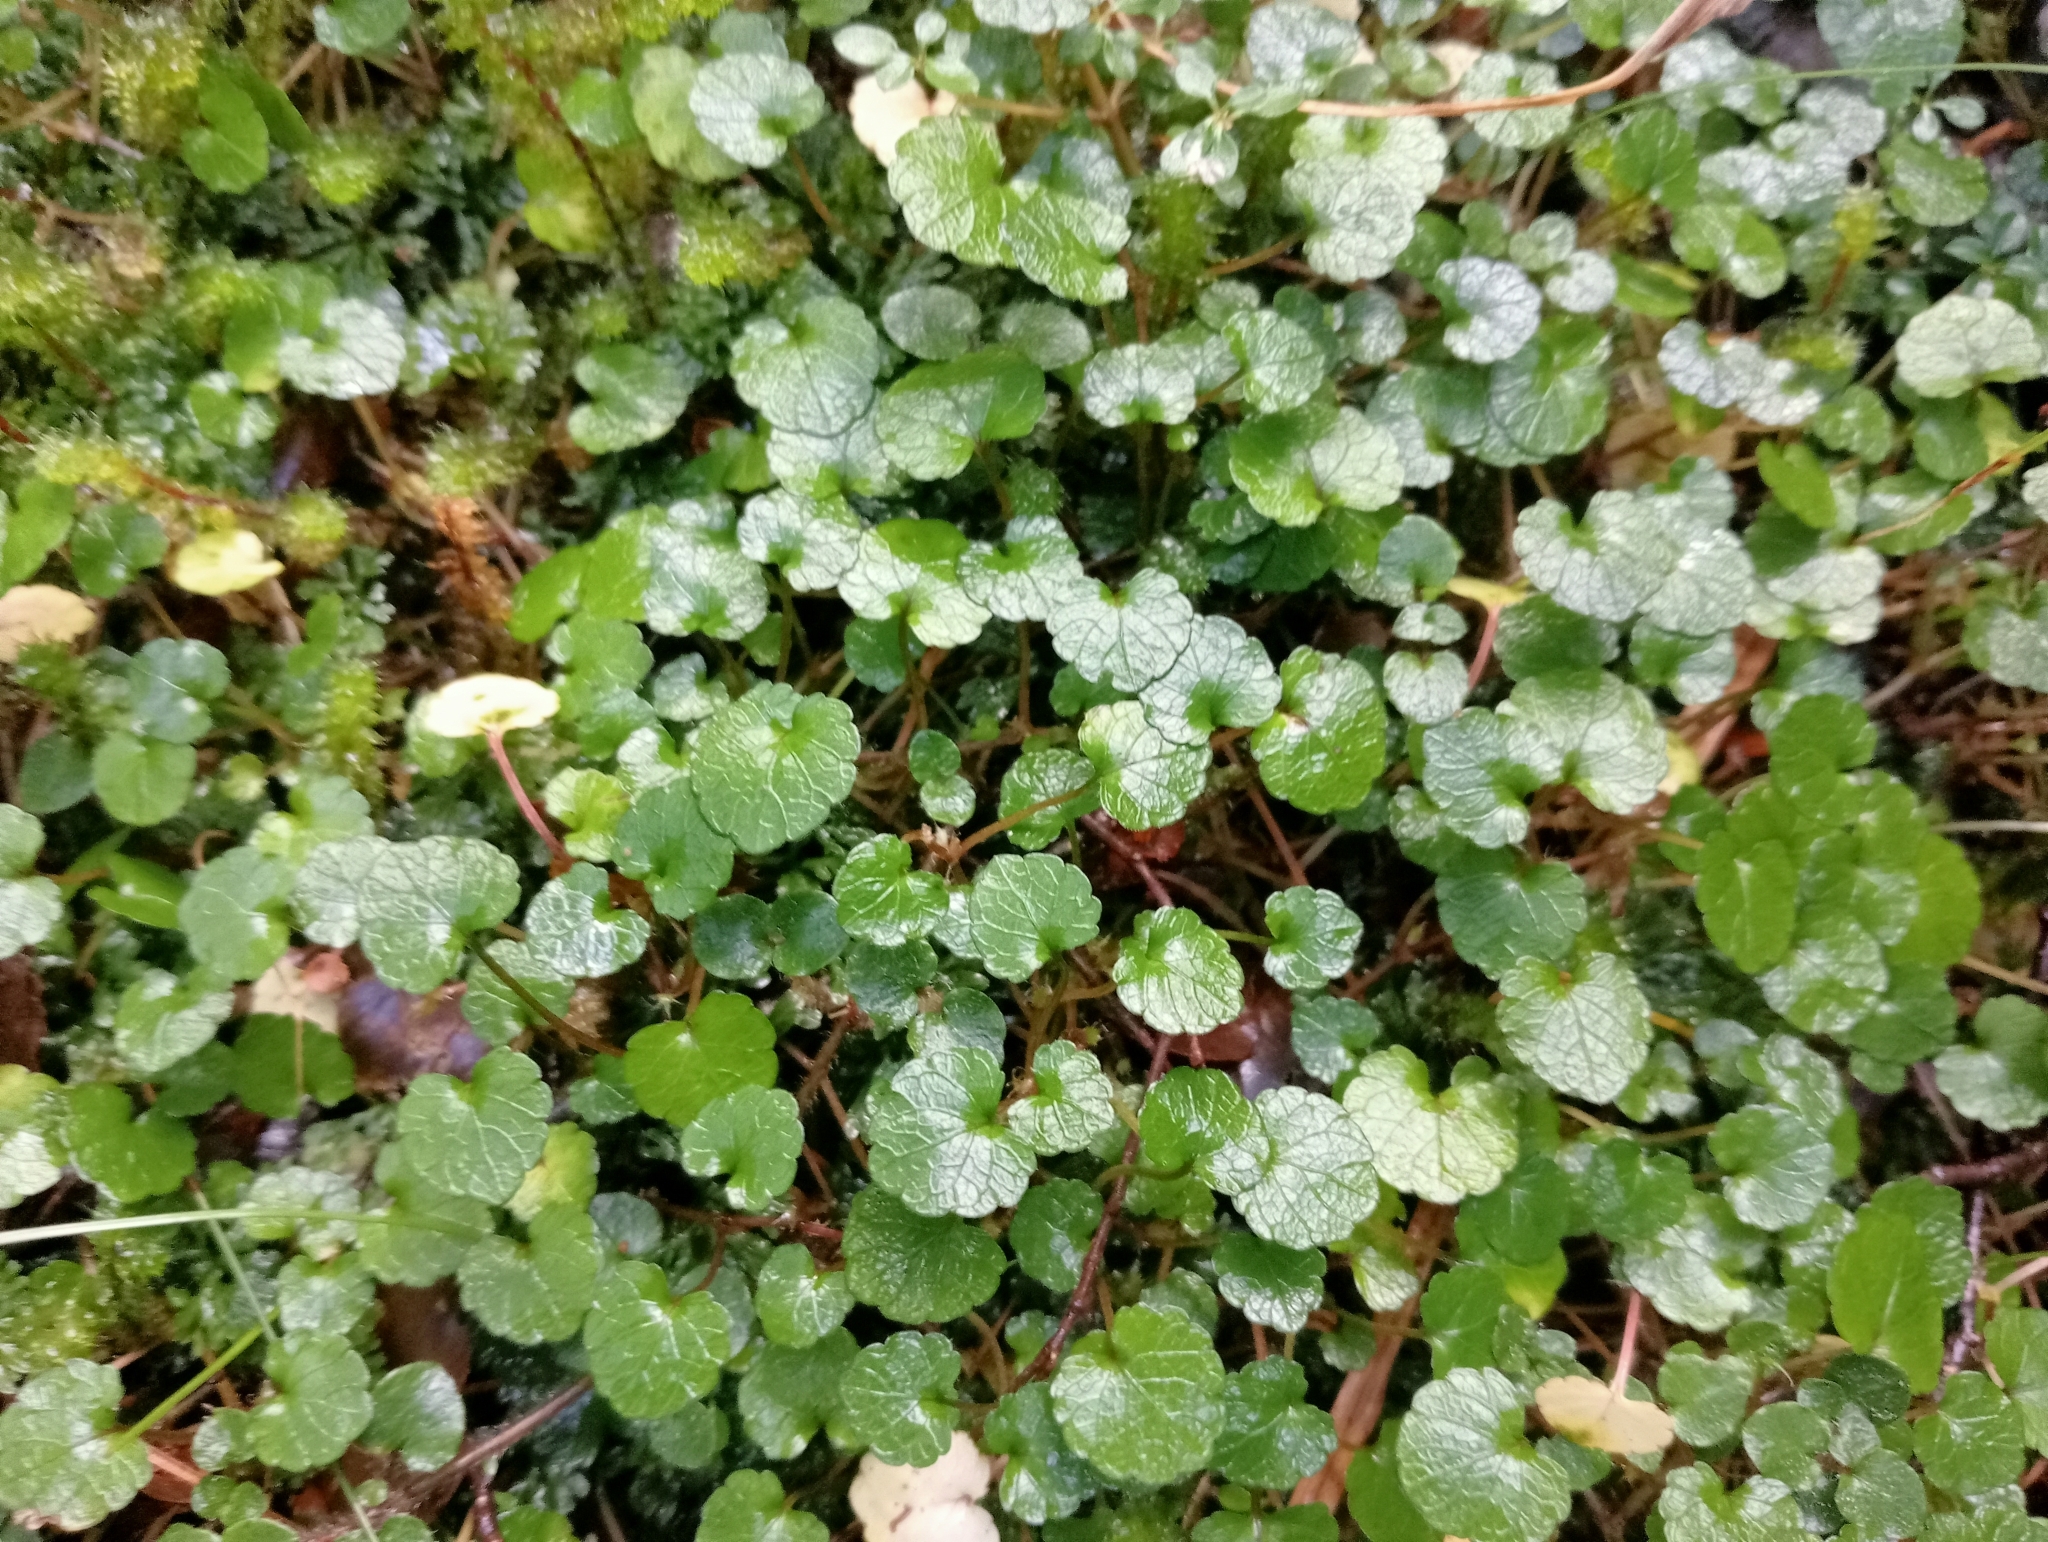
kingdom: Plantae
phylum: Tracheophyta
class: Magnoliopsida
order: Malpighiales
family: Violaceae
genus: Viola
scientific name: Viola filicaulis
